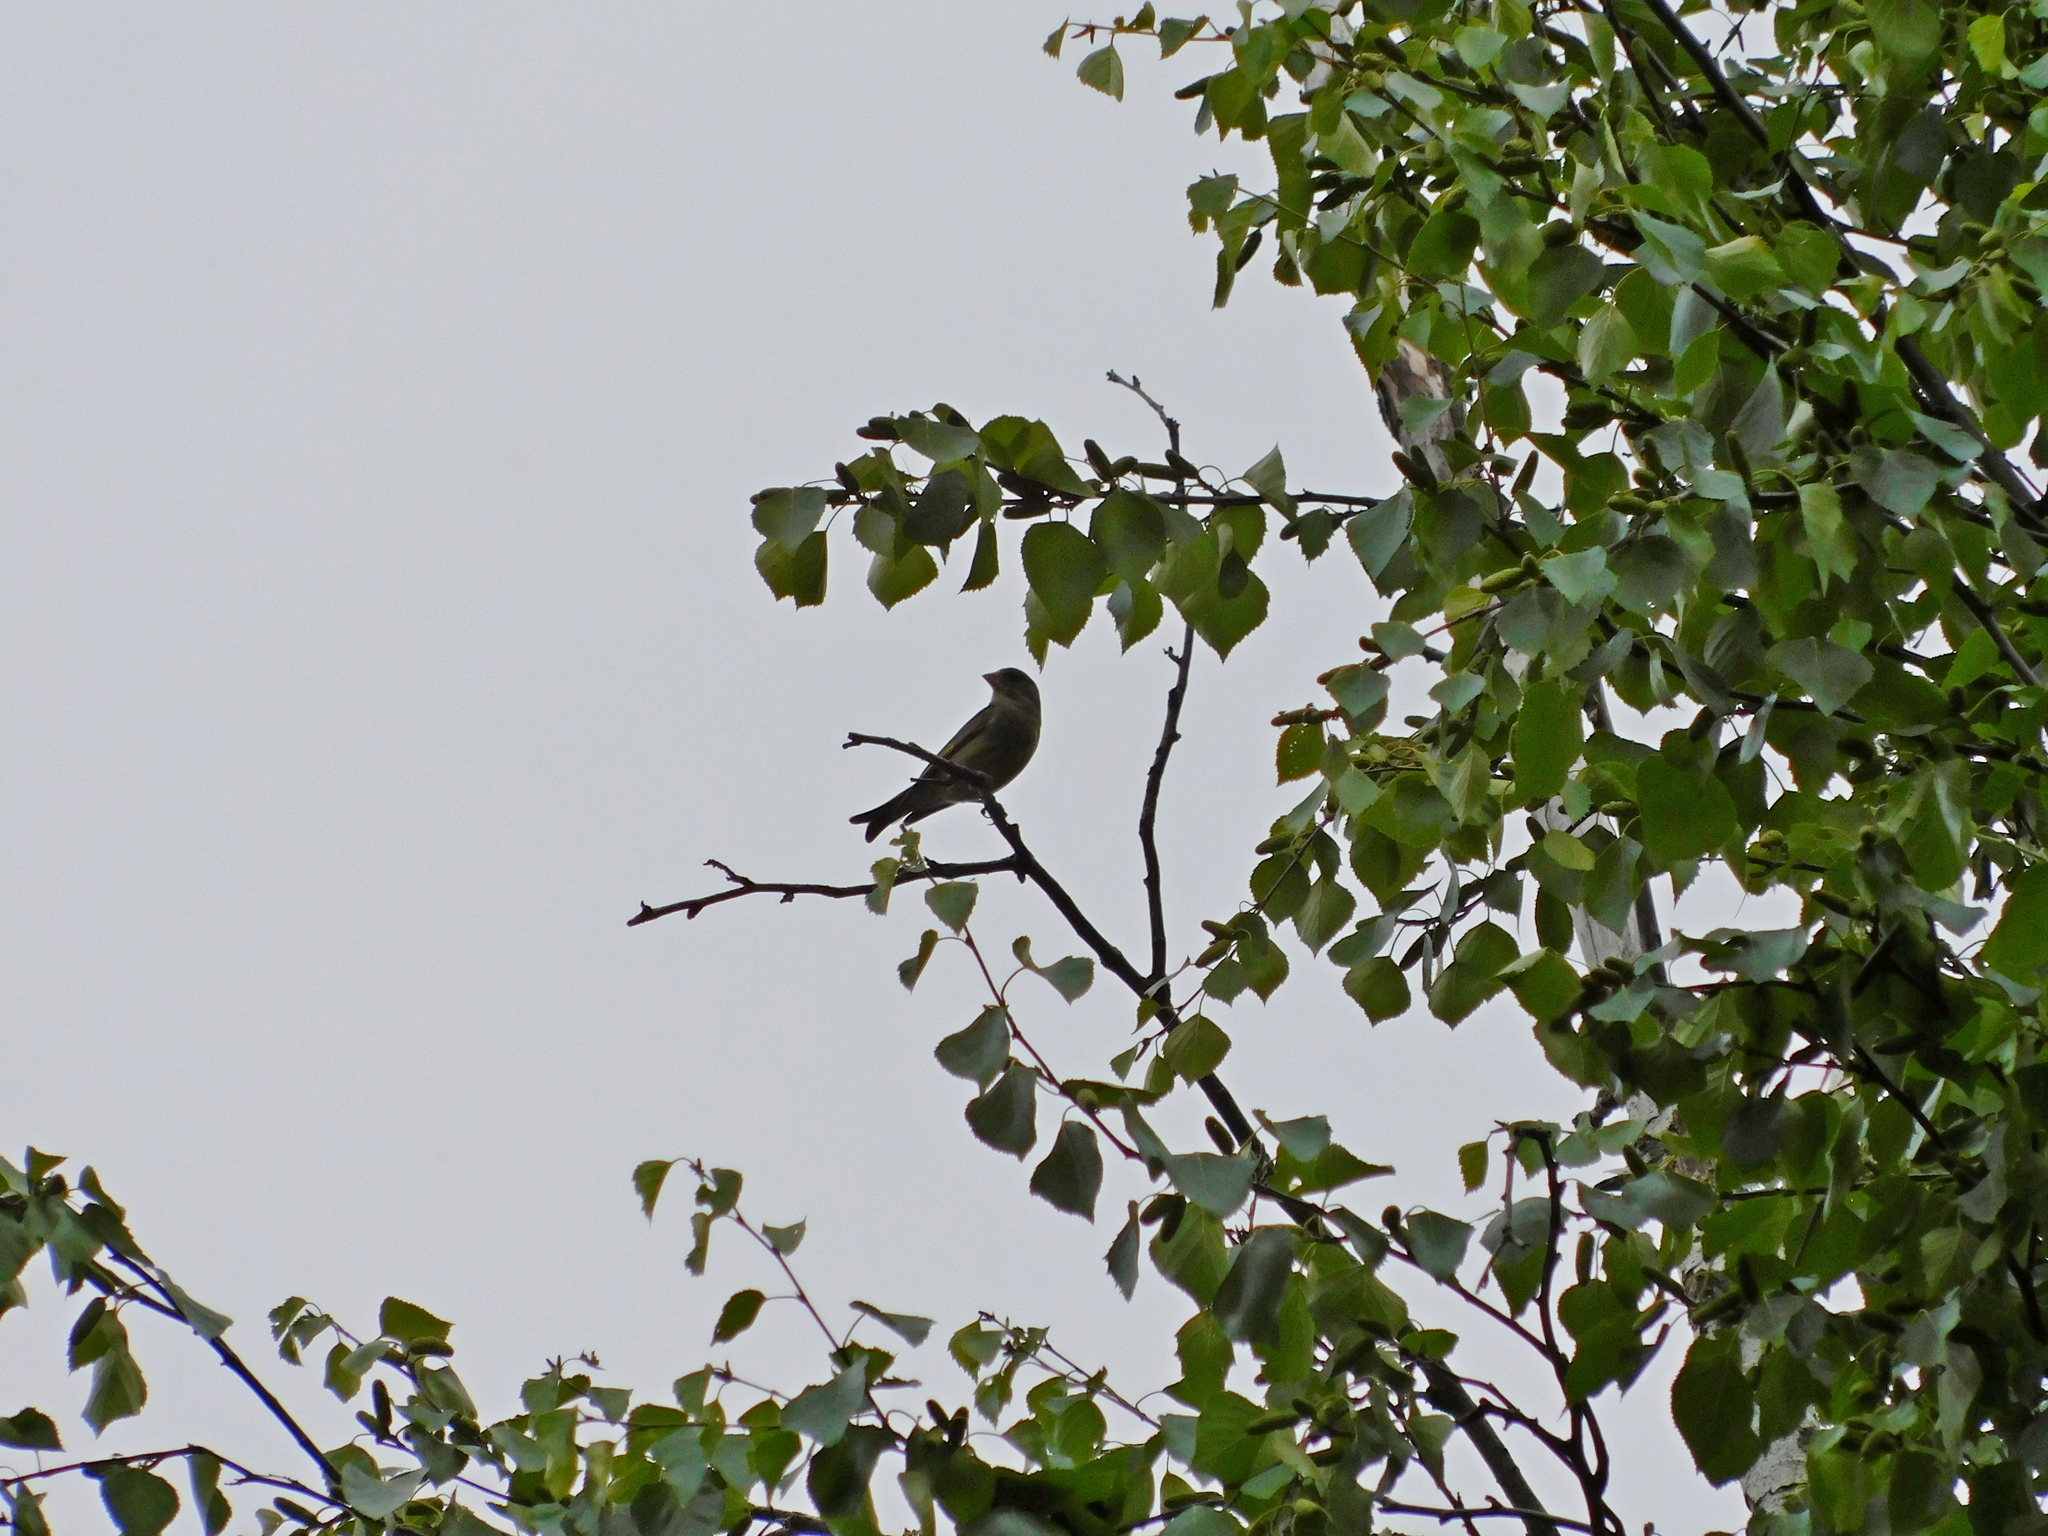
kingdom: Plantae
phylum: Tracheophyta
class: Liliopsida
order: Poales
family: Poaceae
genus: Chloris
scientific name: Chloris chloris
